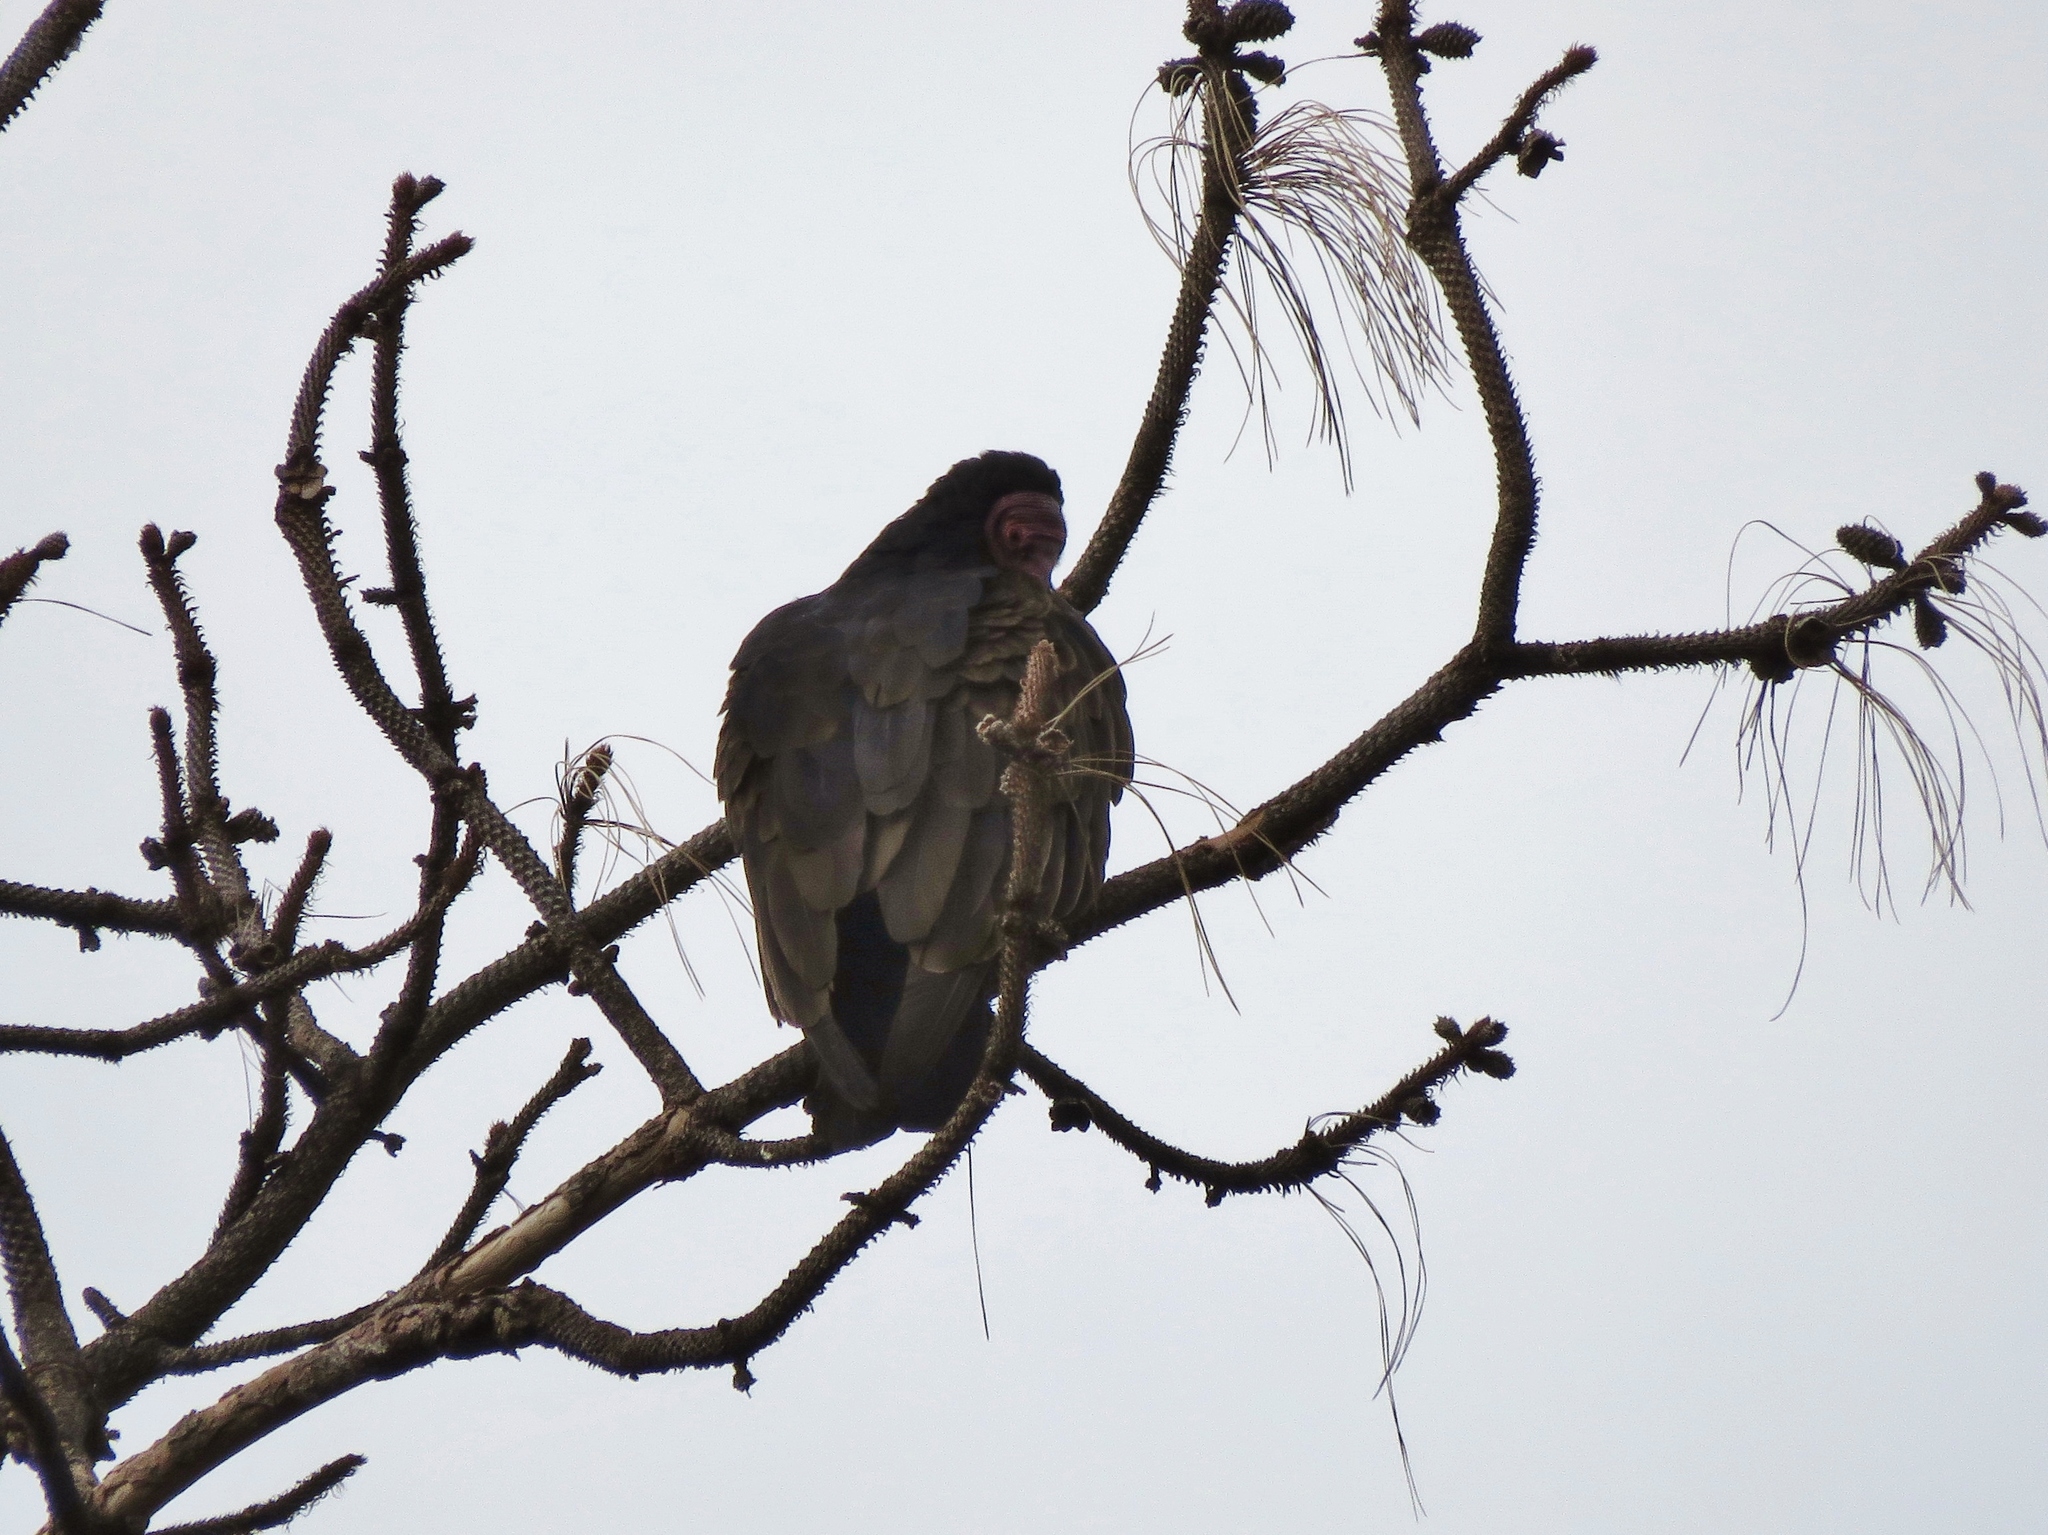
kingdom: Animalia
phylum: Chordata
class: Aves
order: Accipitriformes
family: Cathartidae
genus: Cathartes
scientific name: Cathartes aura
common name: Turkey vulture
